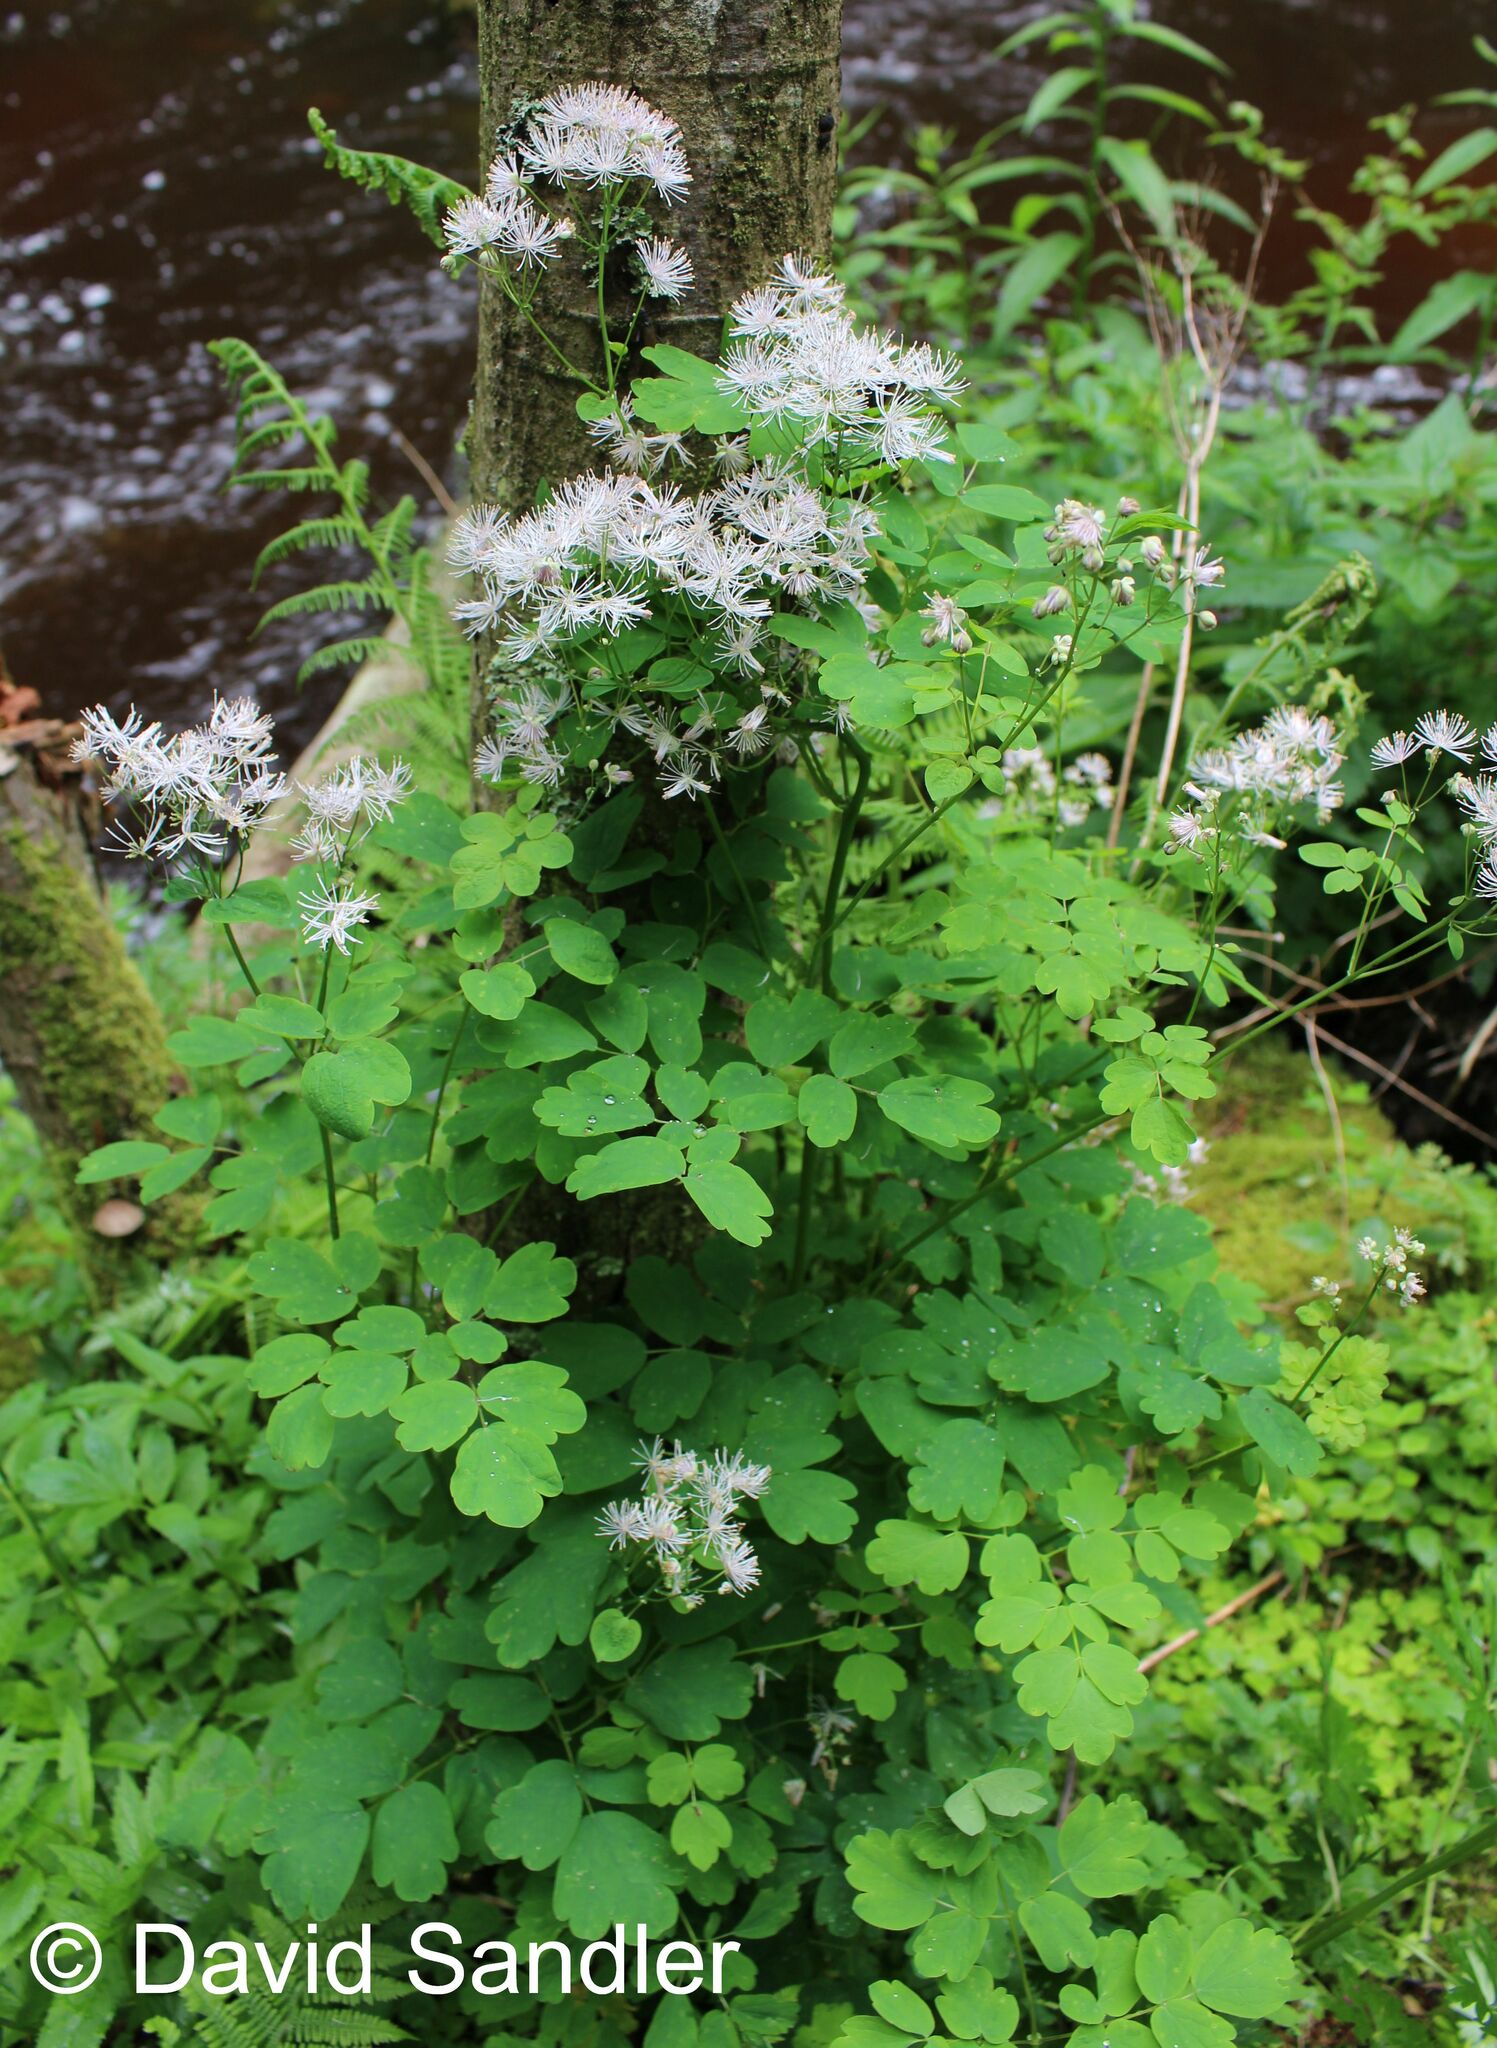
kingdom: Plantae
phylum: Tracheophyta
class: Magnoliopsida
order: Ranunculales
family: Ranunculaceae
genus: Thalictrum
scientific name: Thalictrum aquilegiifolium
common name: French meadow-rue
